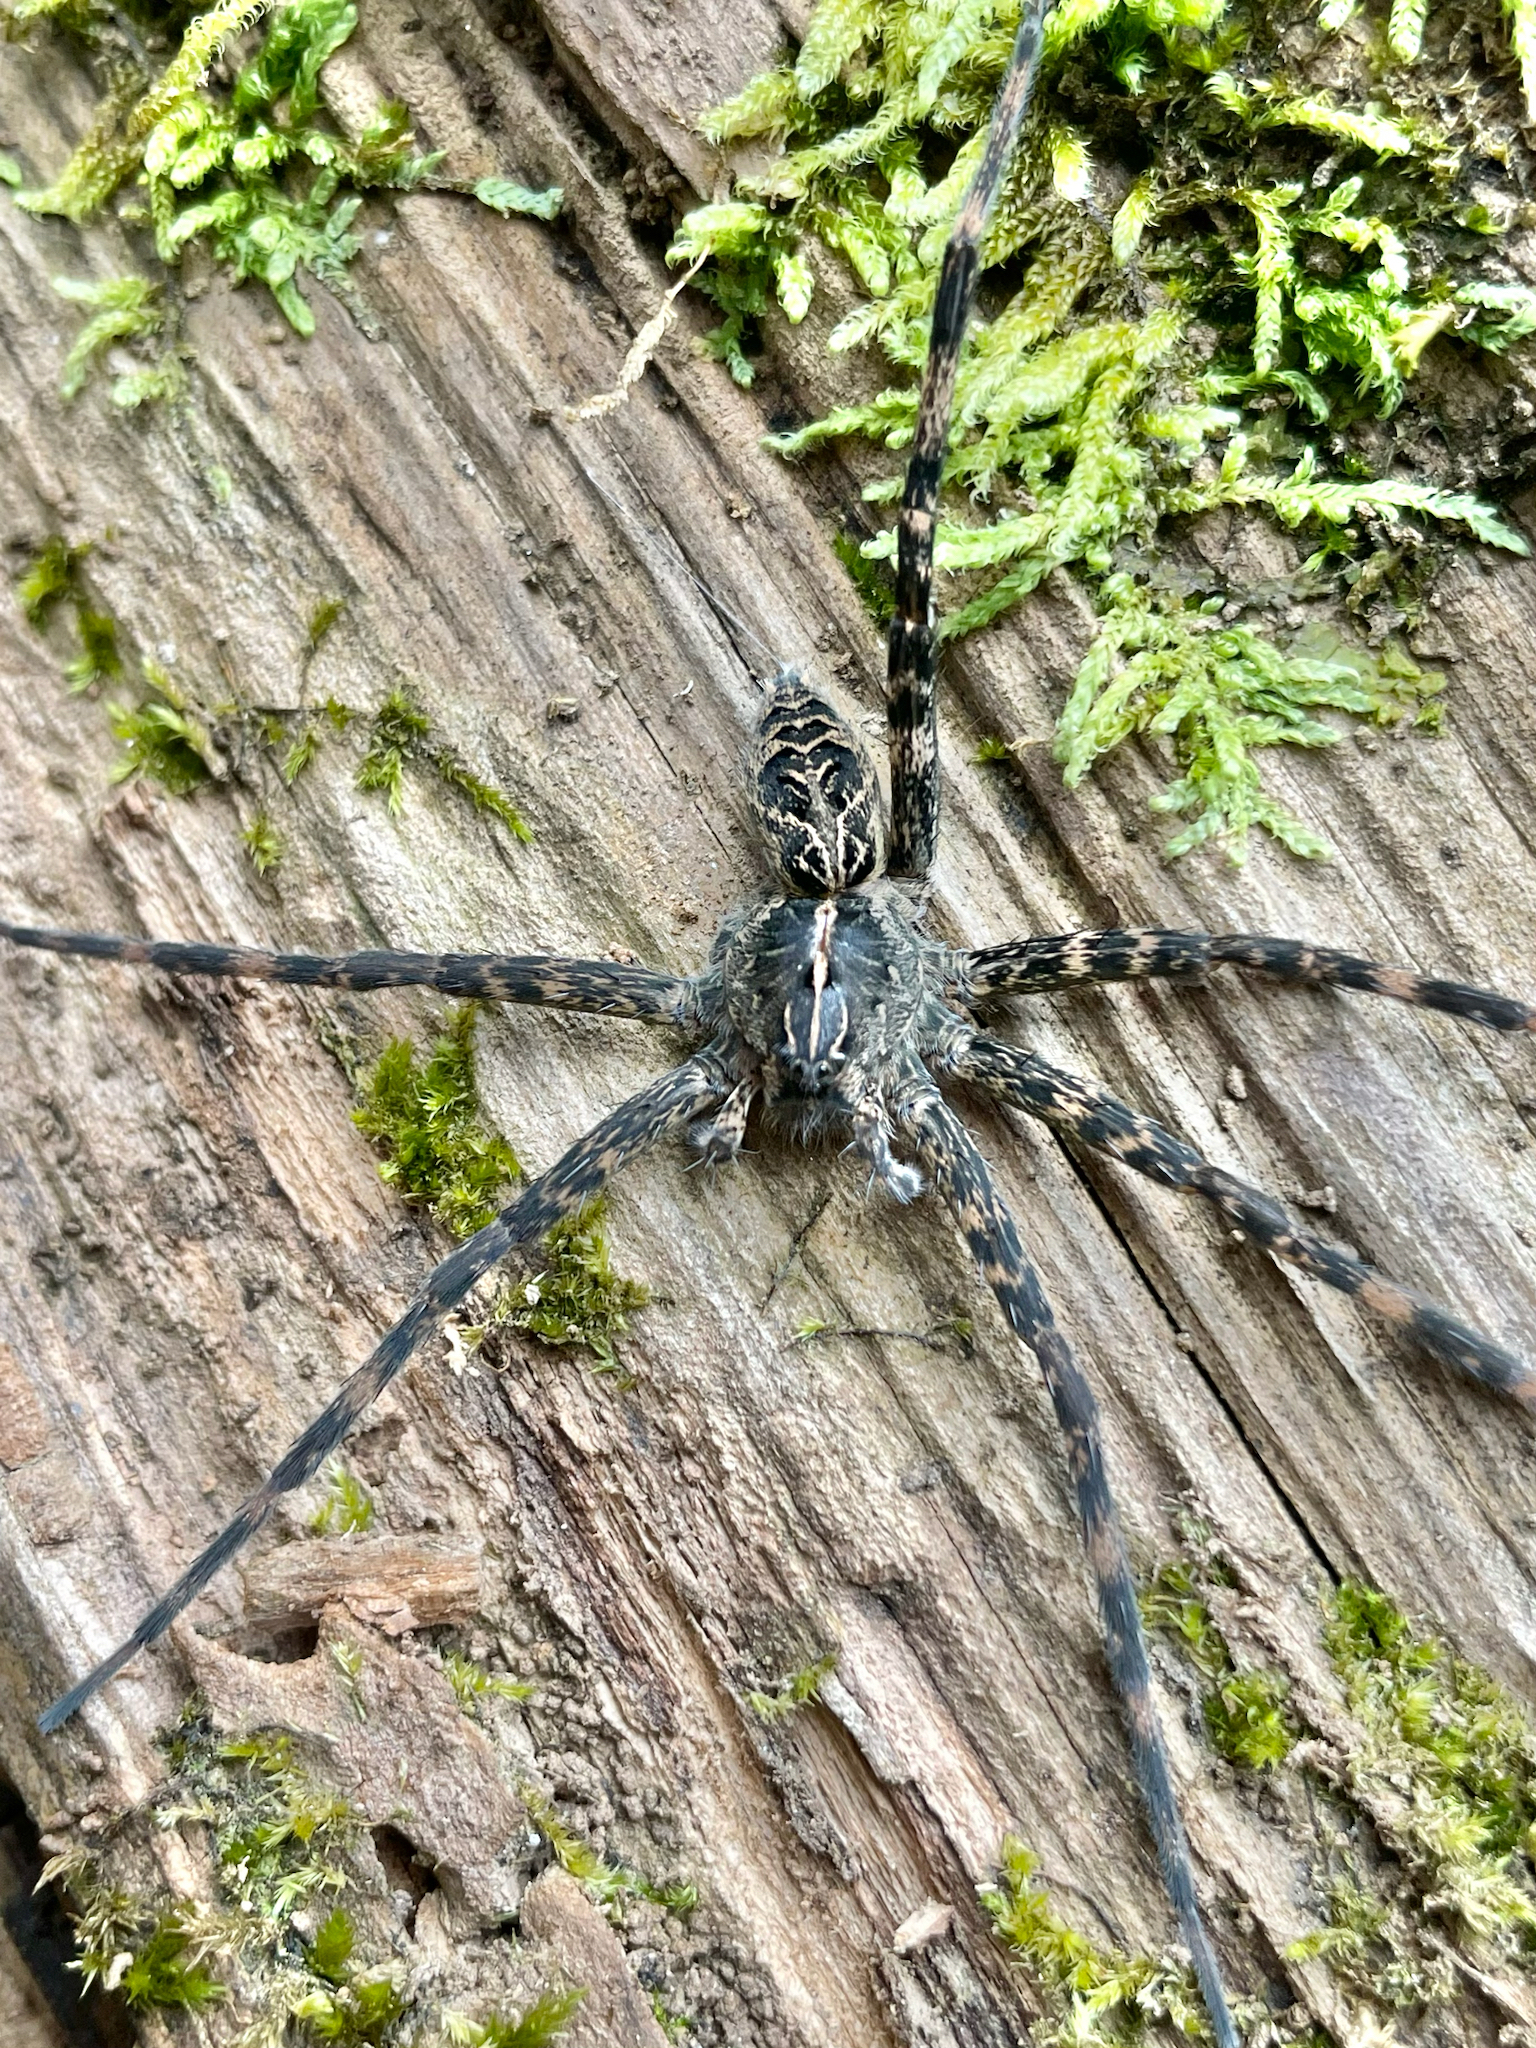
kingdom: Animalia
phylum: Arthropoda
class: Arachnida
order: Araneae
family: Pisauridae
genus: Dolomedes
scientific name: Dolomedes scriptus
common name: Striped fishing spider
